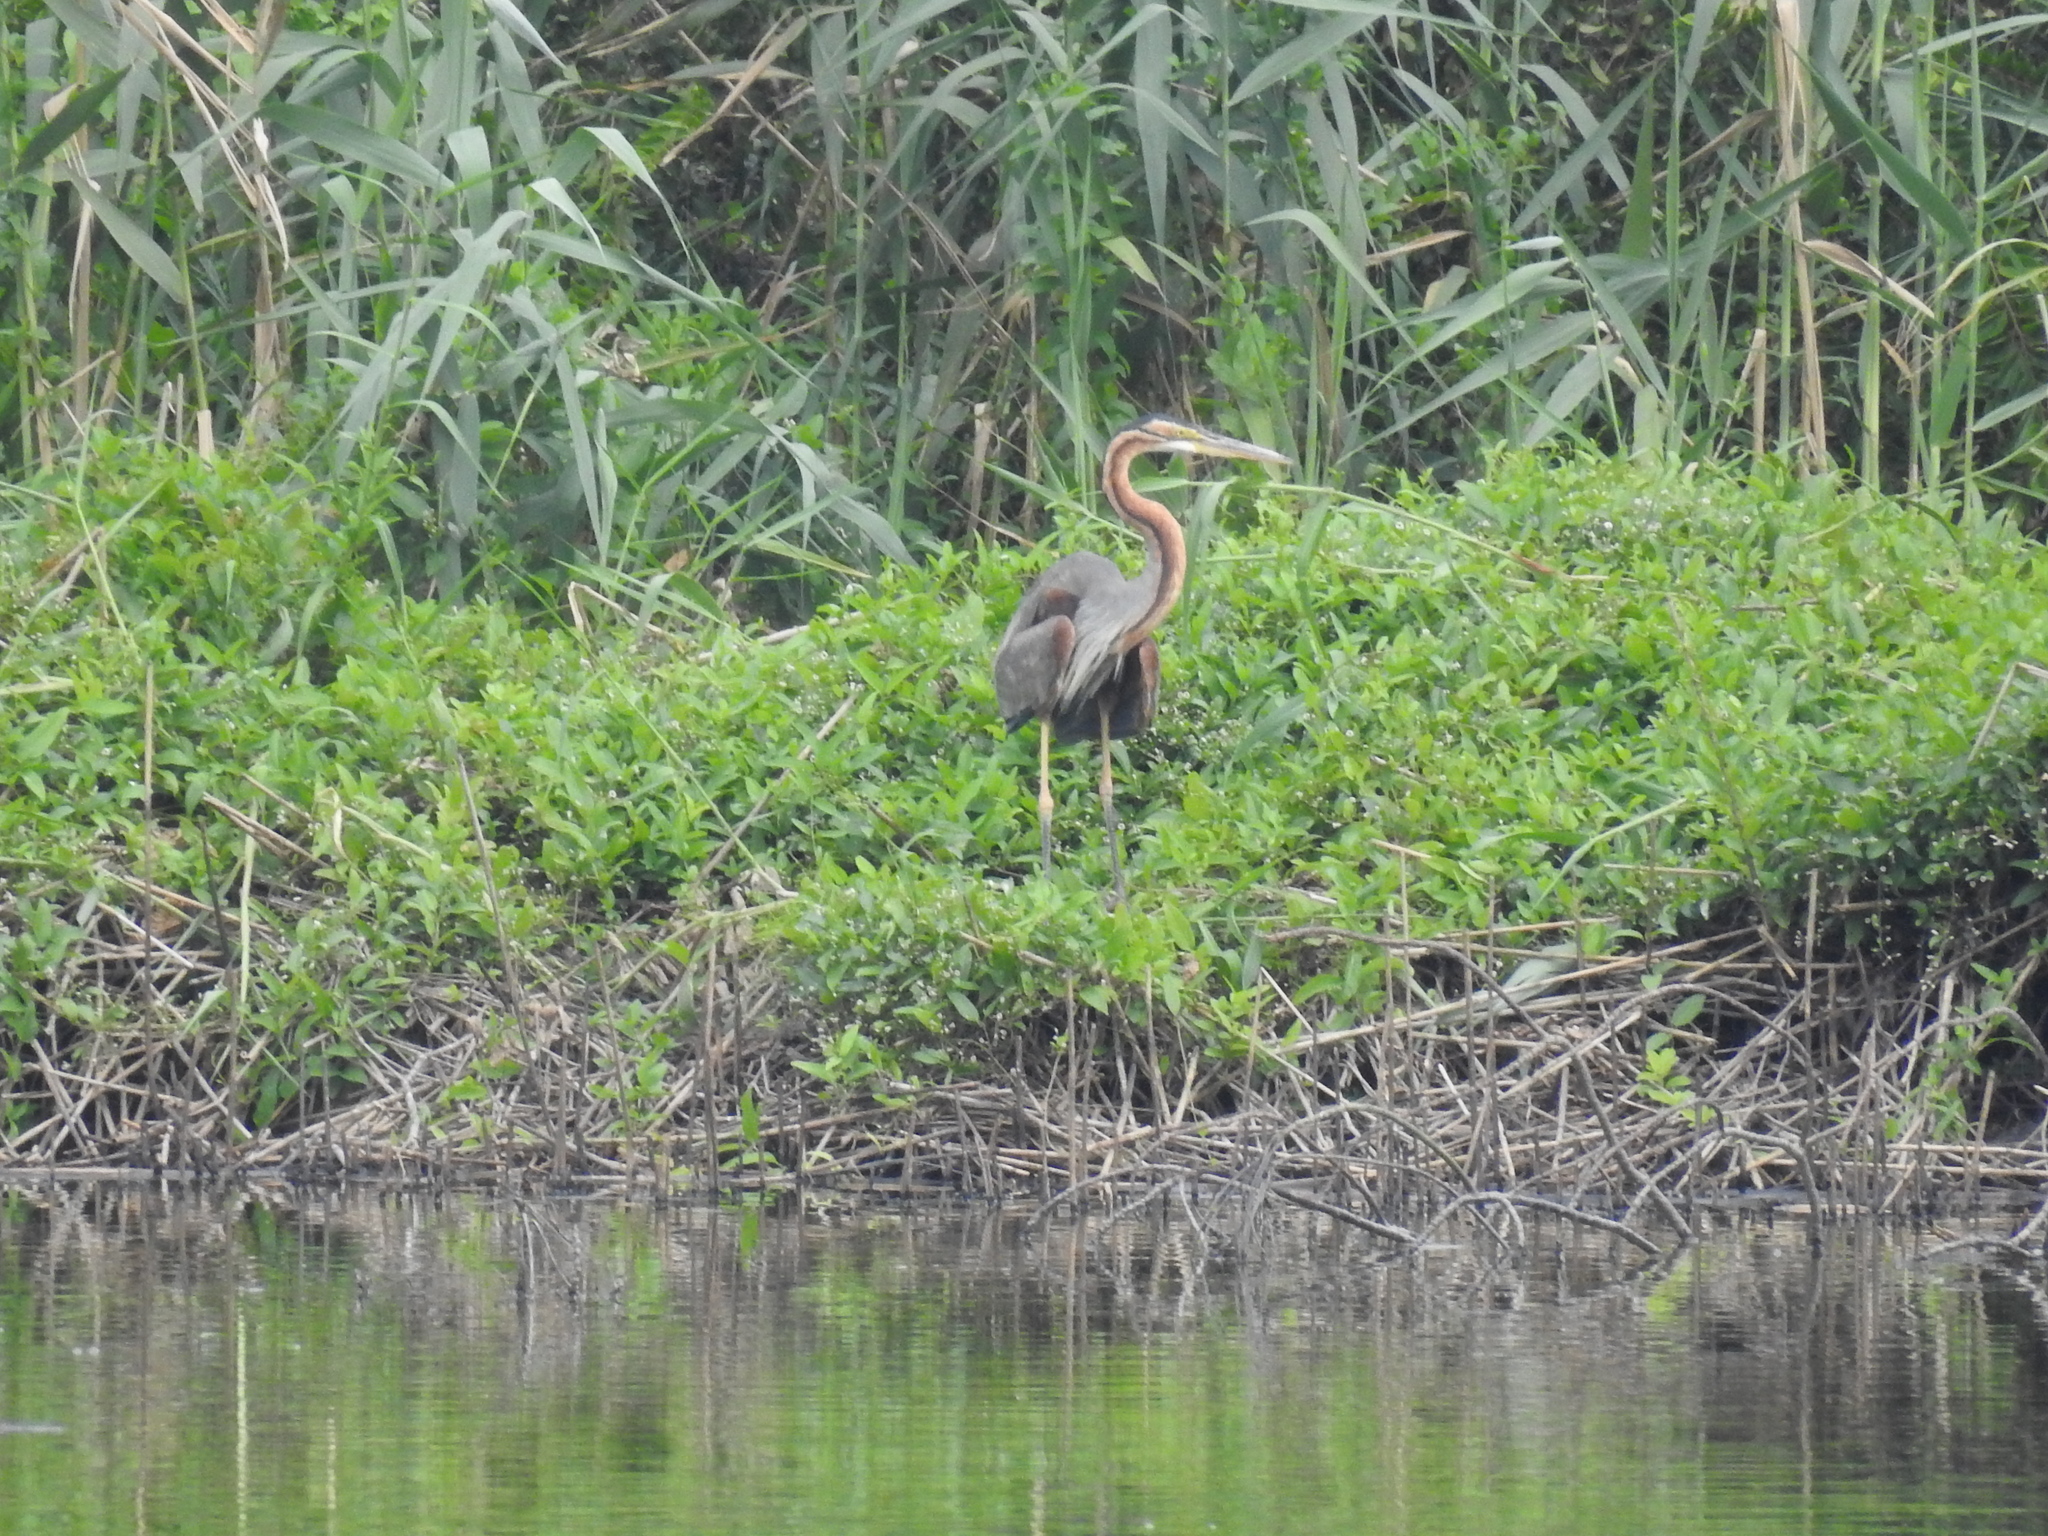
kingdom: Animalia
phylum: Chordata
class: Aves
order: Pelecaniformes
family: Ardeidae
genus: Ardea
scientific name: Ardea purpurea
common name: Purple heron
